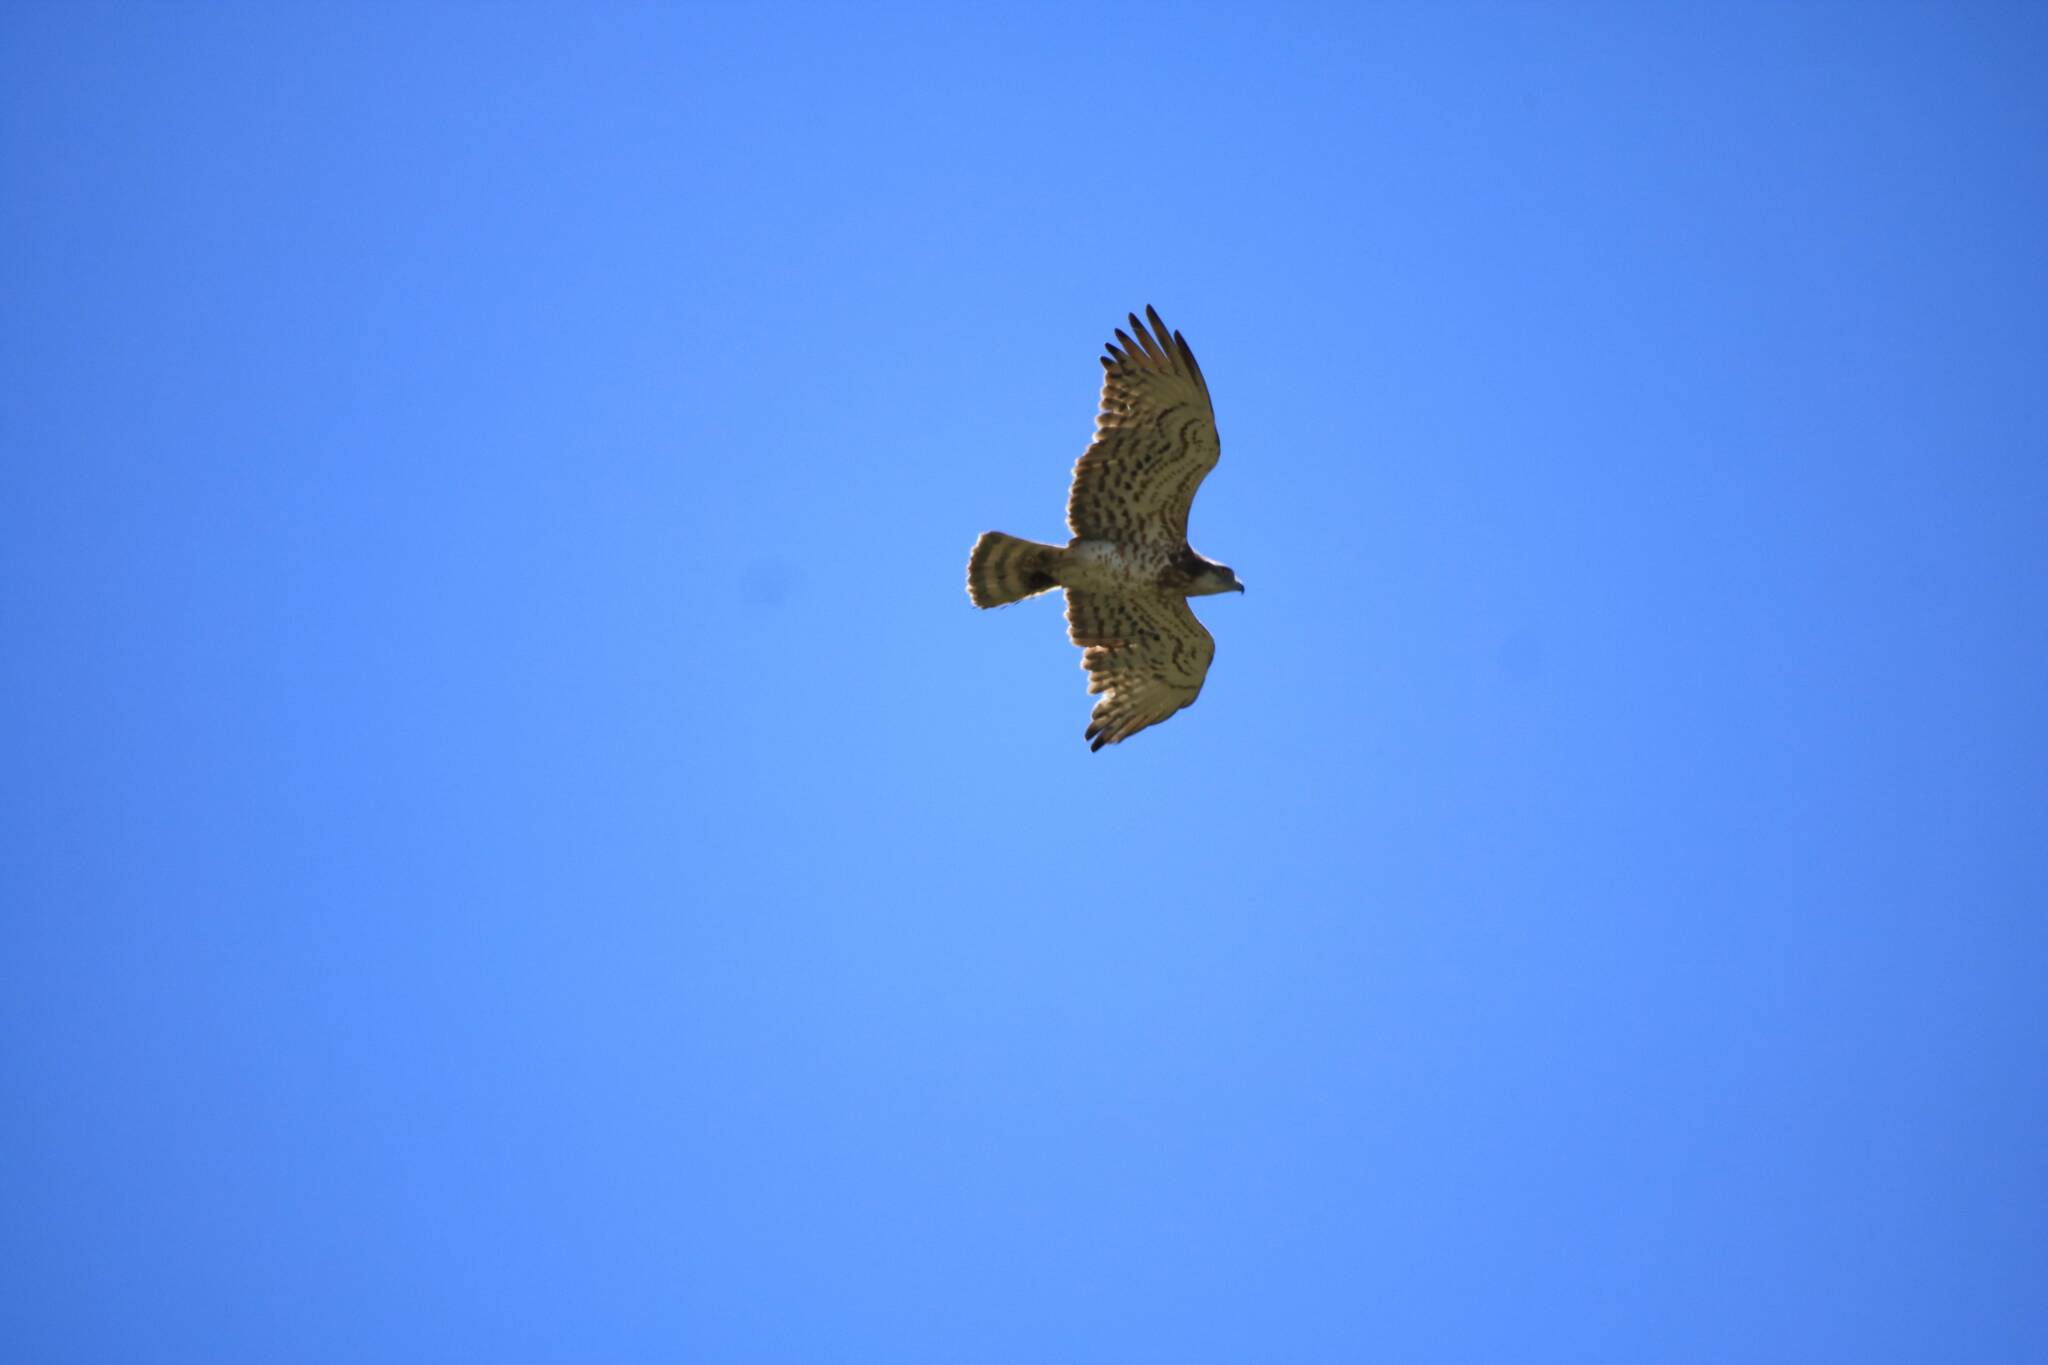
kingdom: Animalia
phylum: Chordata
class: Aves
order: Accipitriformes
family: Accipitridae
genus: Circaetus
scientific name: Circaetus gallicus
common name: Short-toed snake eagle
